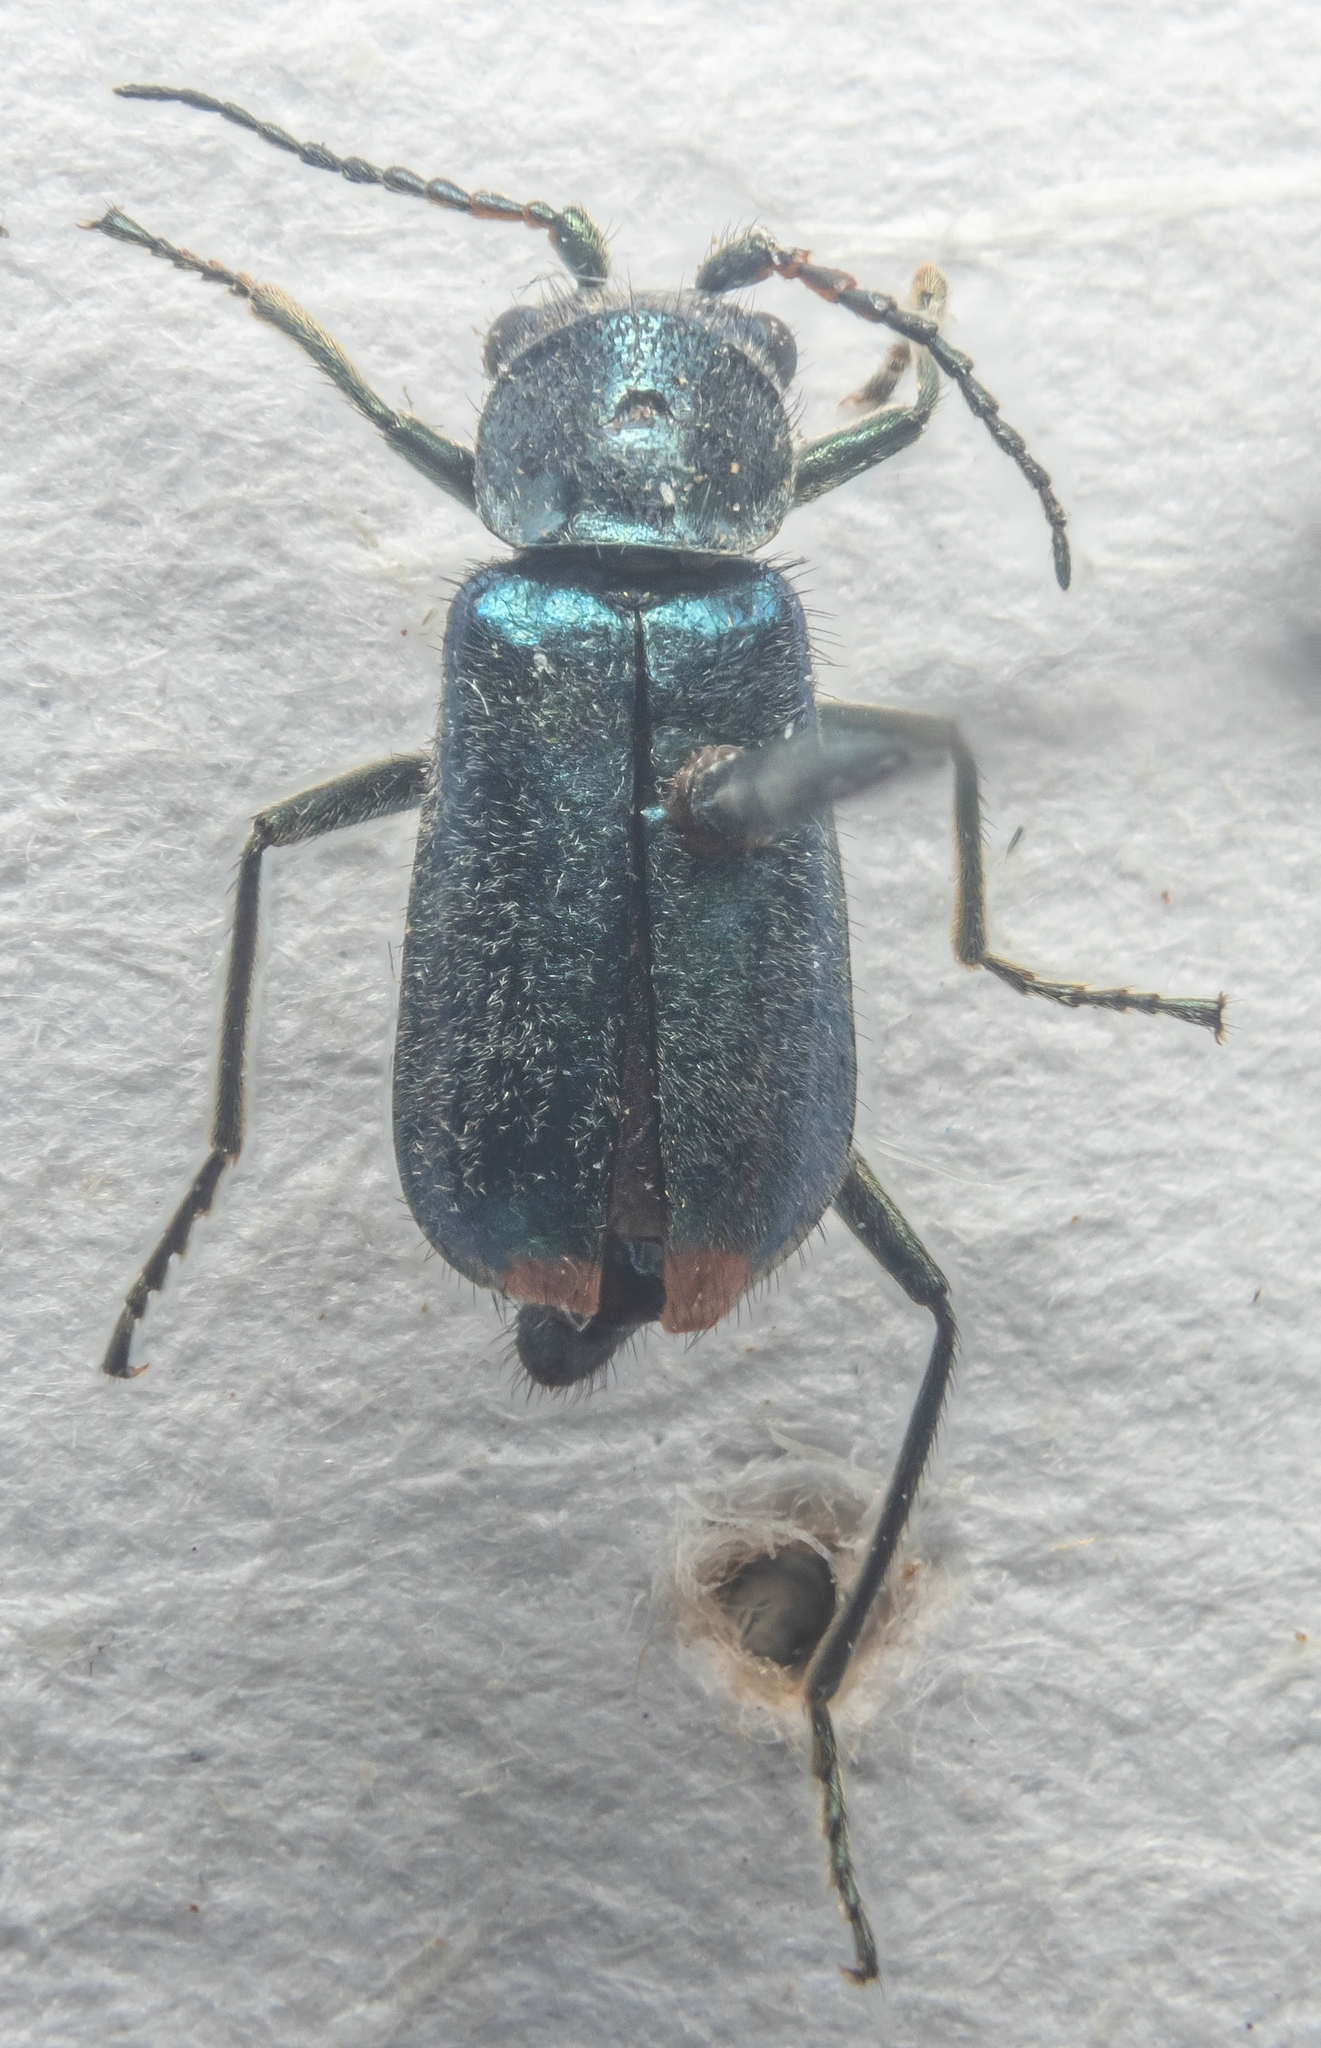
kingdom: Animalia
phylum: Arthropoda
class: Insecta
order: Coleoptera
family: Malachiidae
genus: Cordylepherus
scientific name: Cordylepherus viridis
